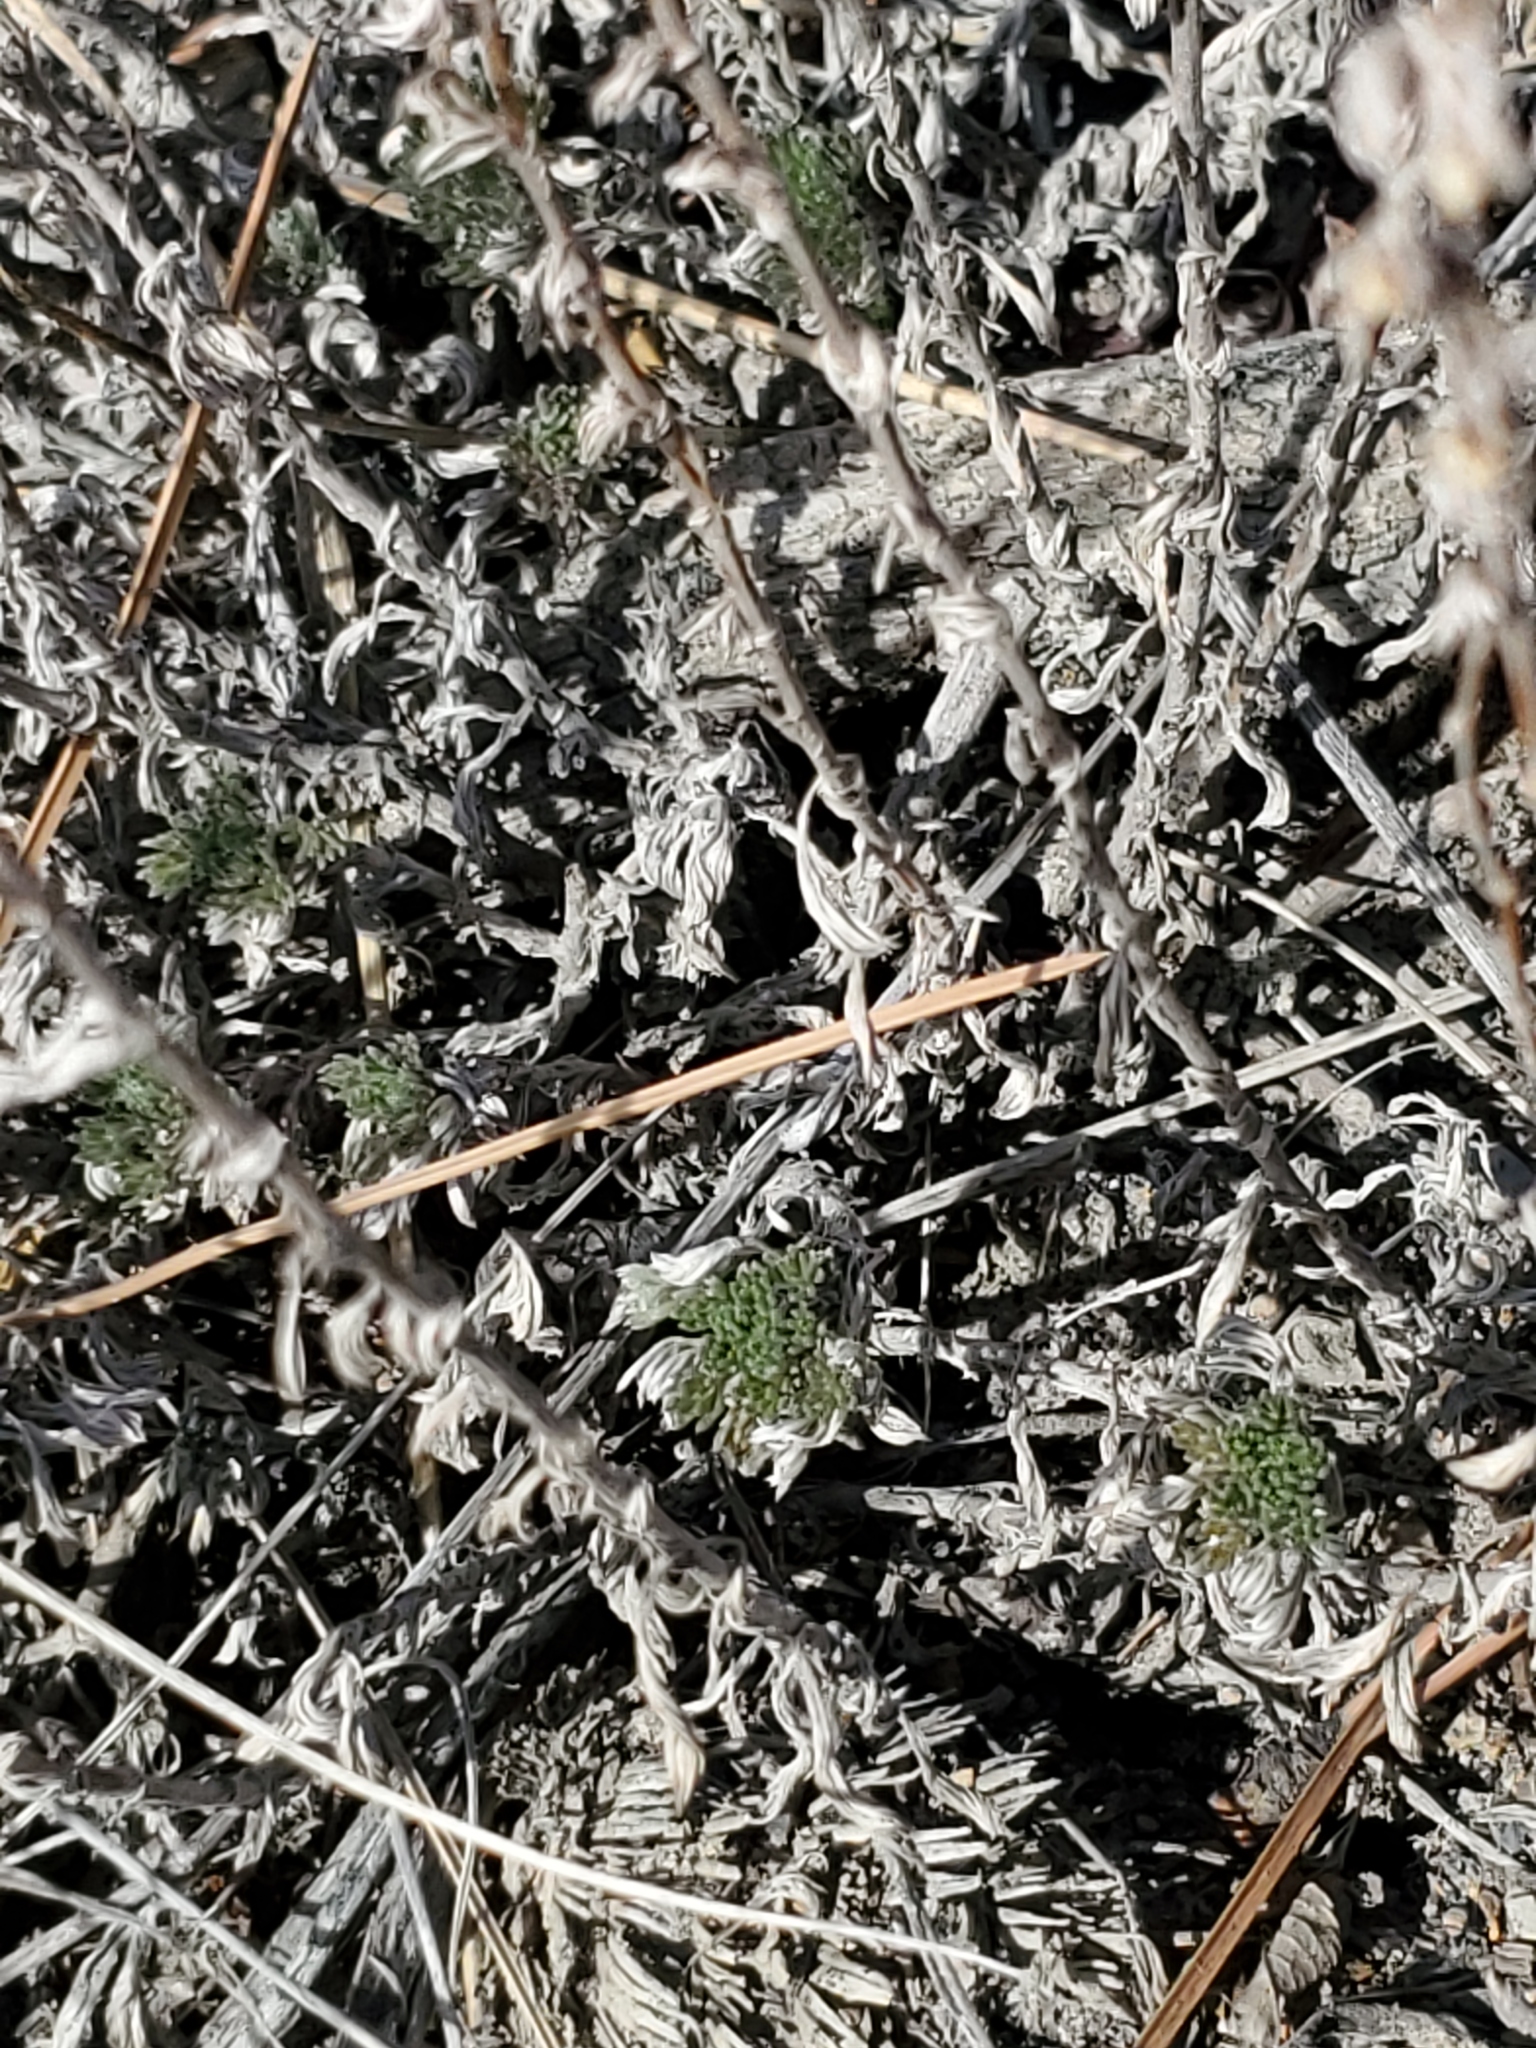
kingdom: Plantae
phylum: Tracheophyta
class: Magnoliopsida
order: Asterales
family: Asteraceae
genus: Artemisia
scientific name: Artemisia frigida
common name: Prairie sagewort
